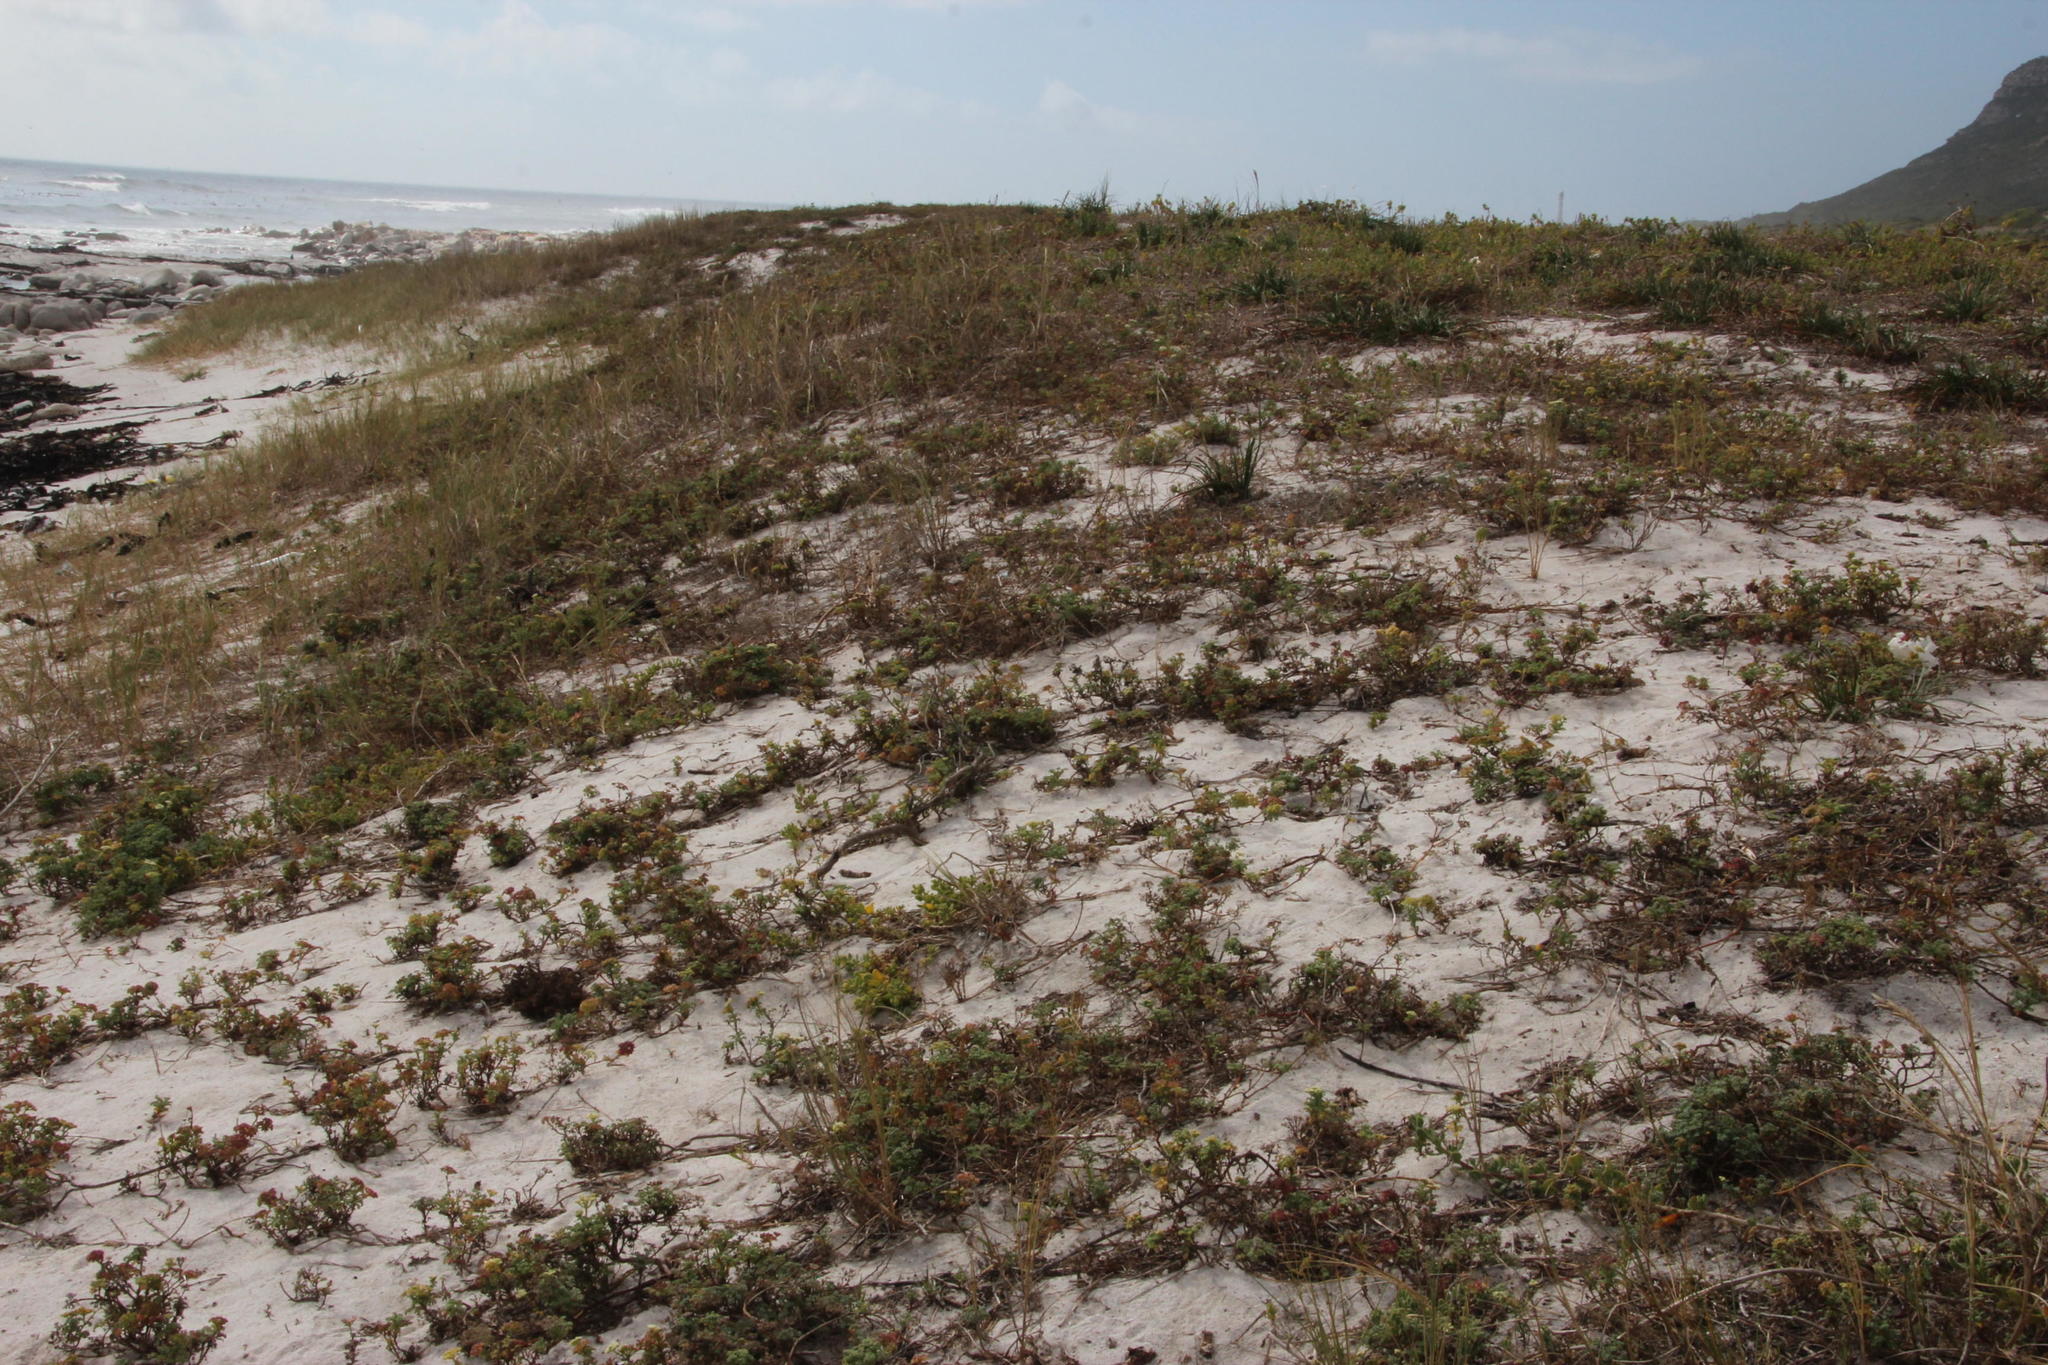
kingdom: Plantae
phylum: Tracheophyta
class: Magnoliopsida
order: Apiales
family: Apiaceae
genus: Dasispermum
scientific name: Dasispermum suffruticosum
